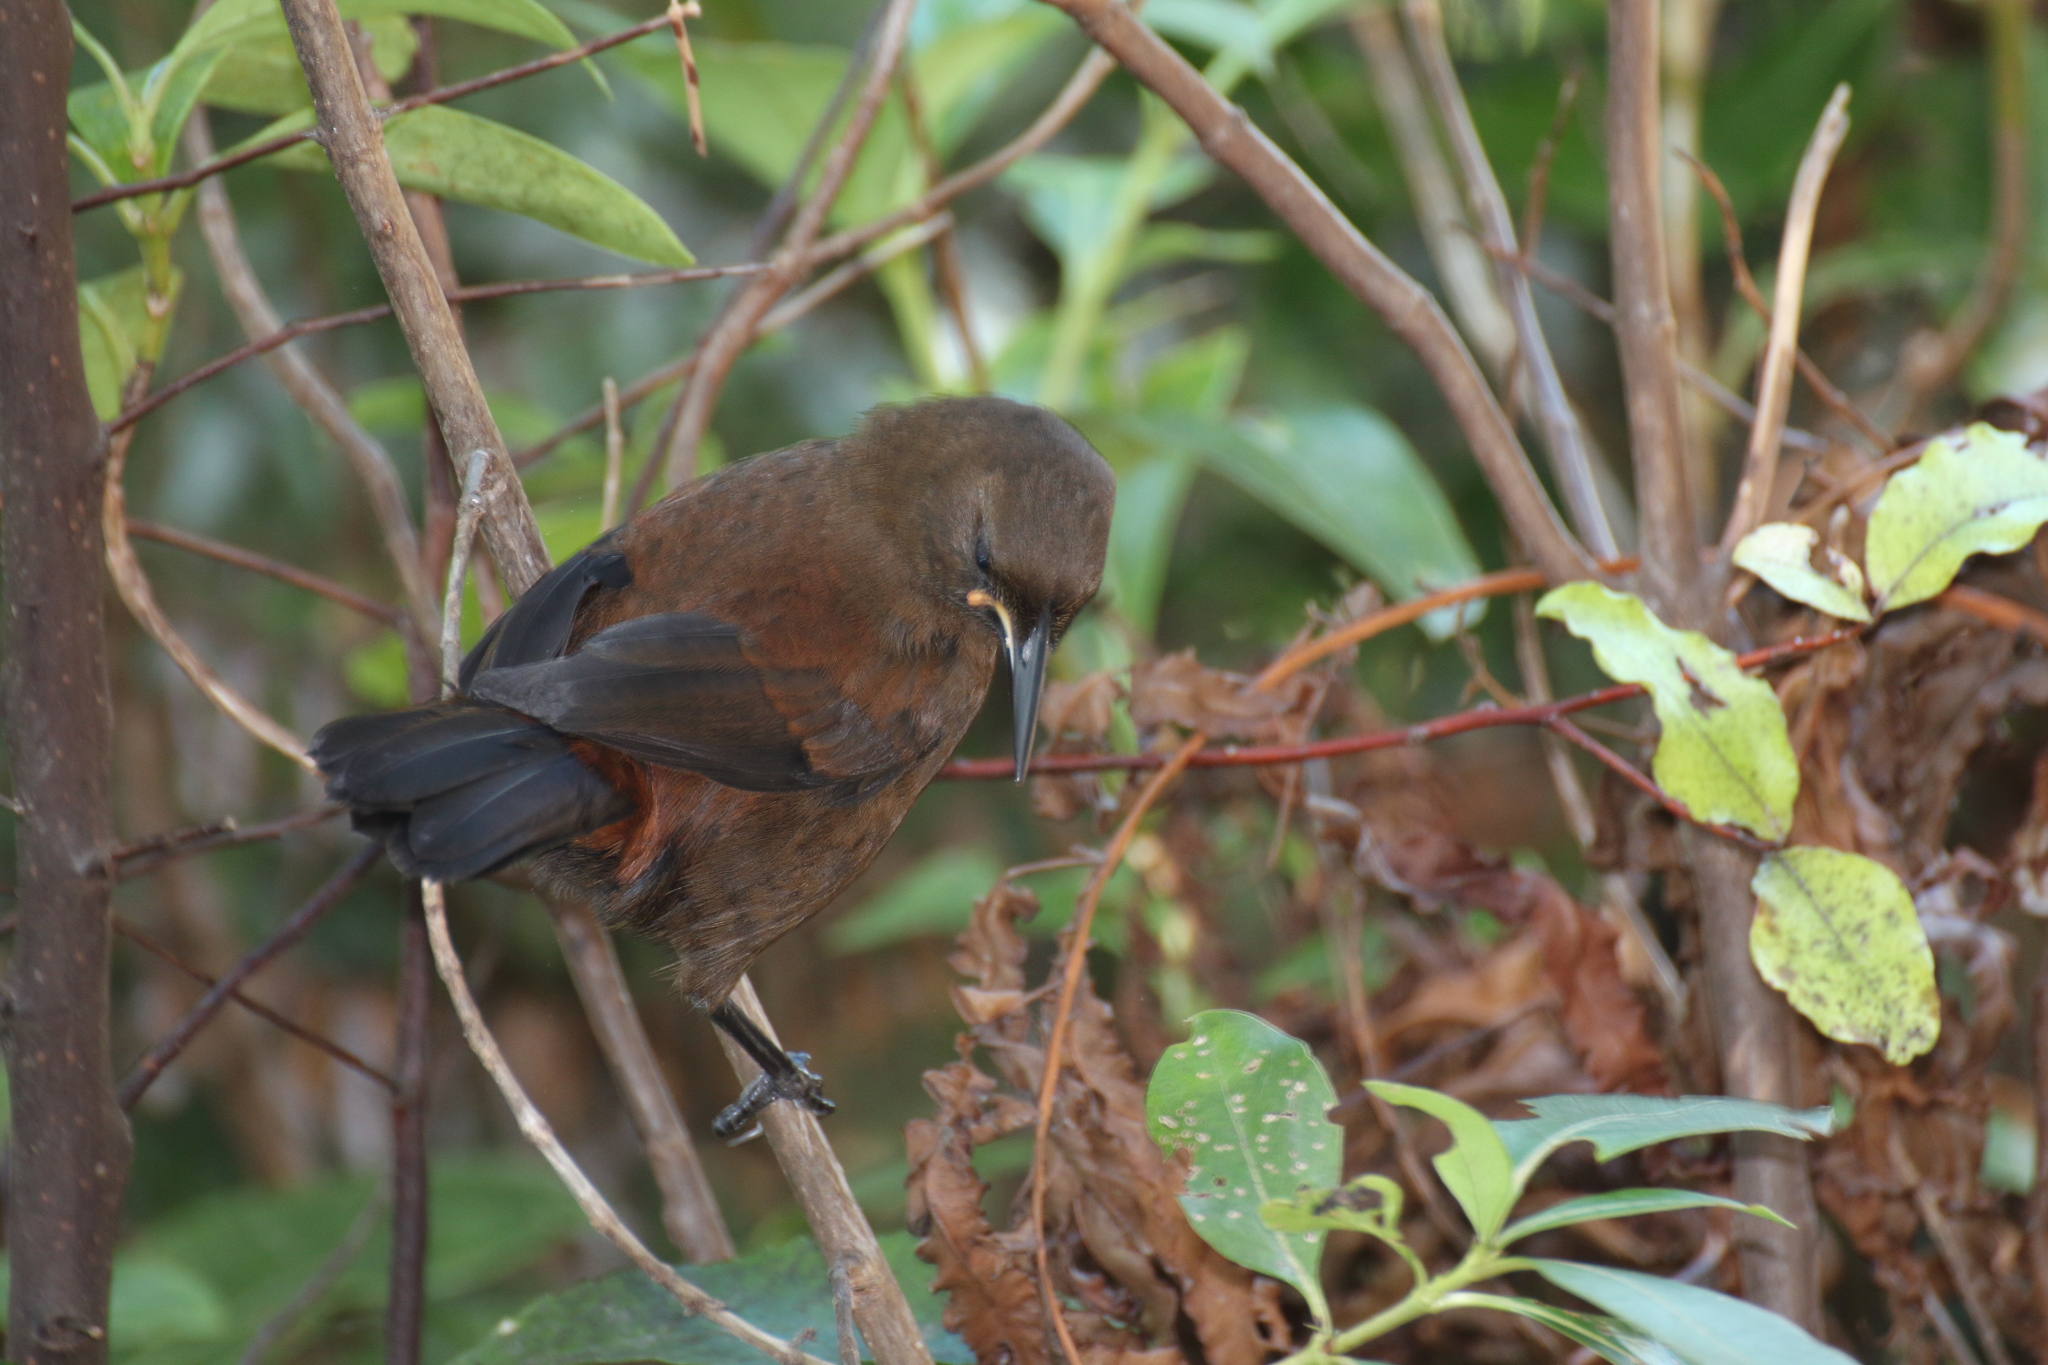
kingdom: Animalia
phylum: Chordata
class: Aves
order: Passeriformes
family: Callaeatidae
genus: Philesturnus
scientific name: Philesturnus carunculatus
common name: South island saddleback
